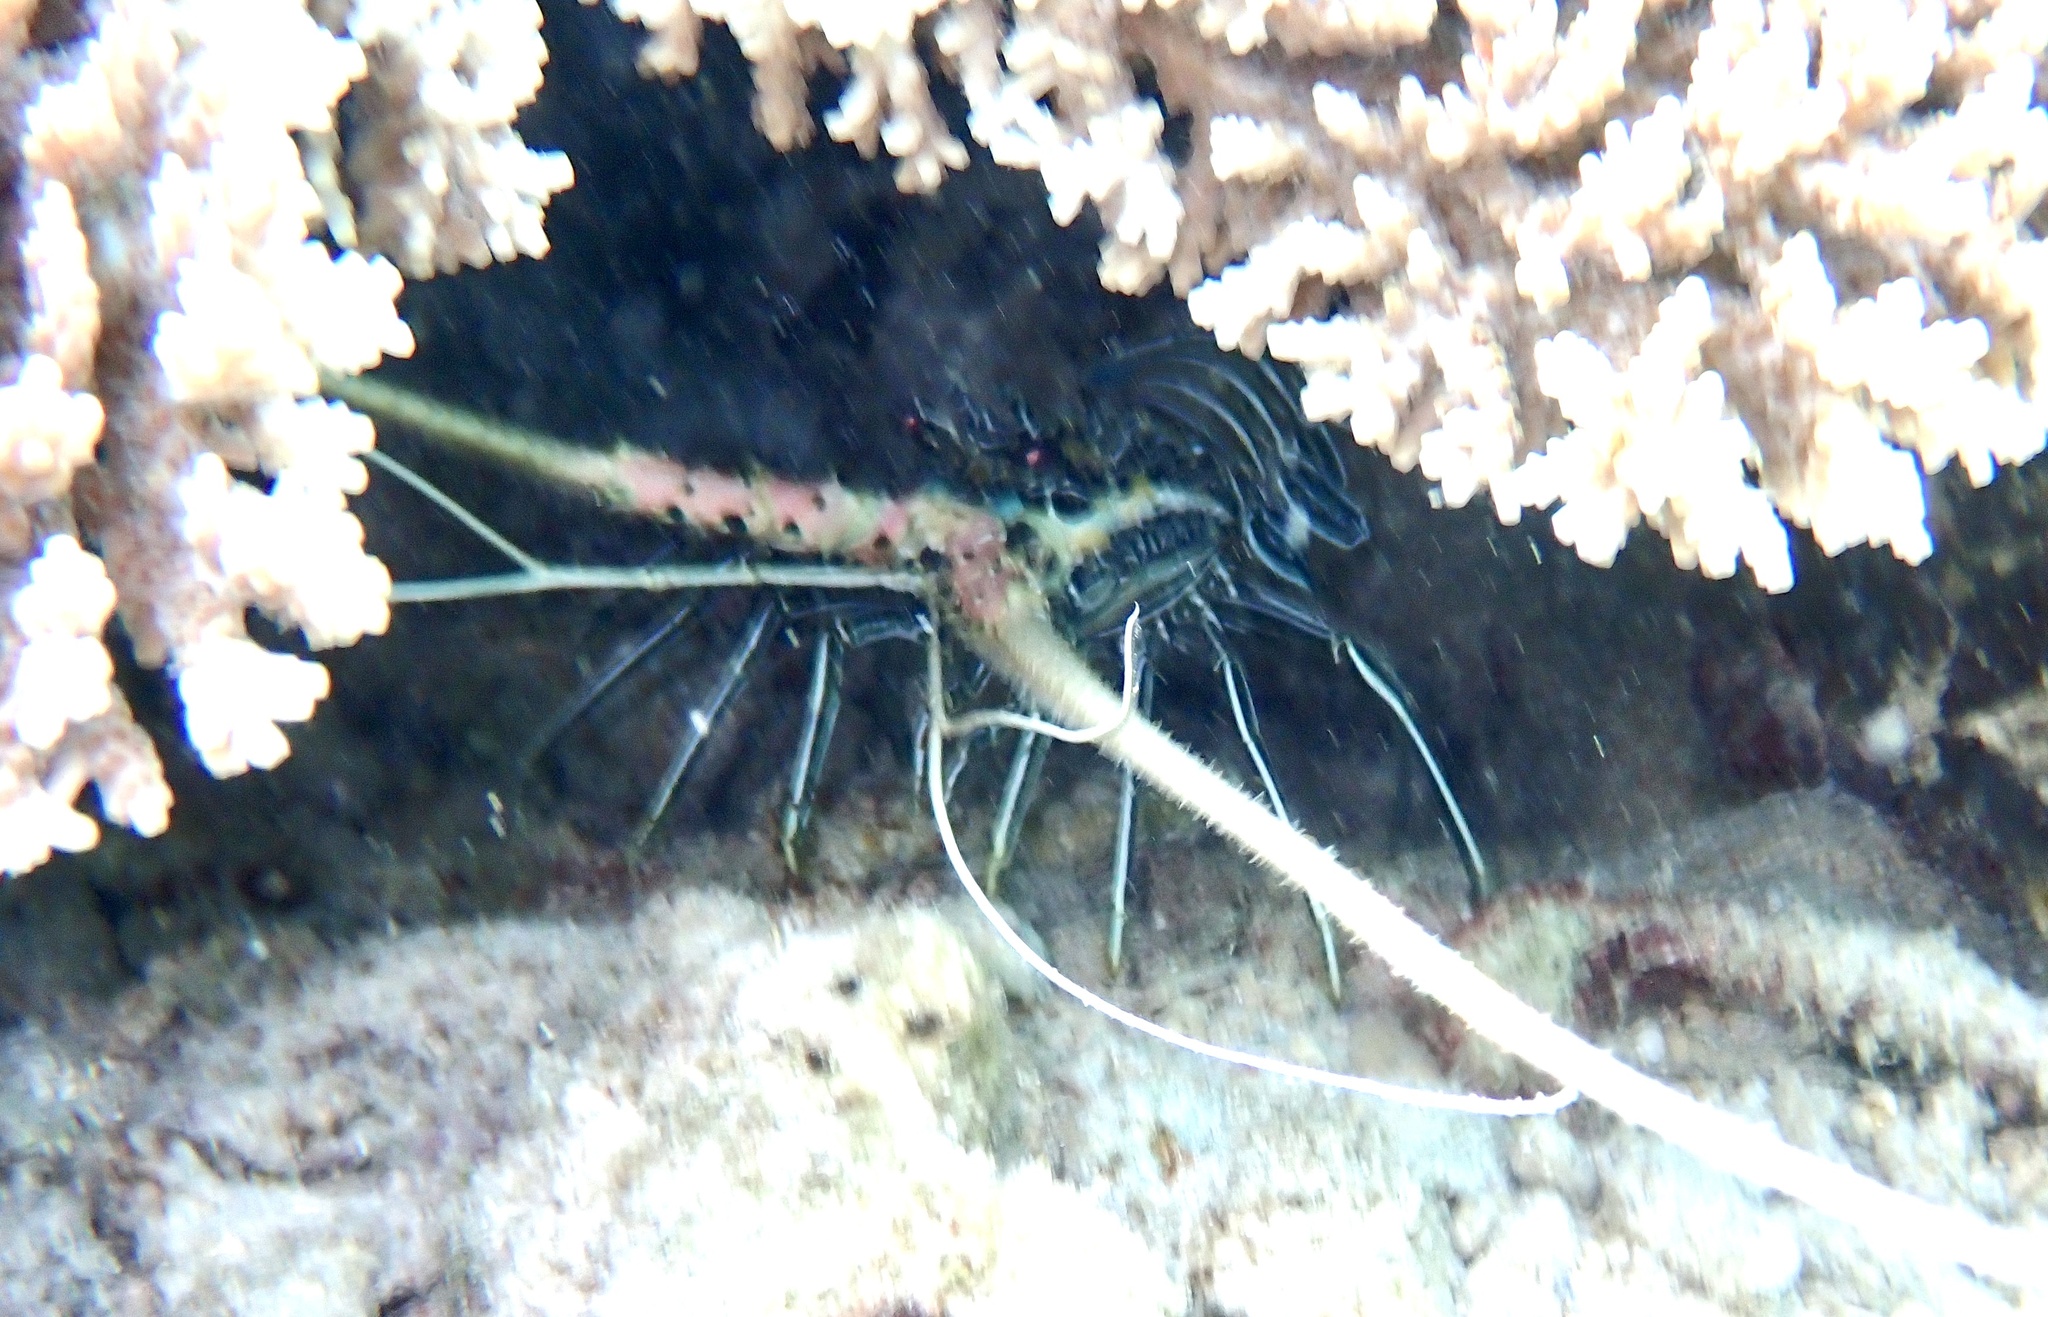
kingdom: Animalia
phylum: Arthropoda
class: Malacostraca
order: Decapoda
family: Palinuridae
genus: Panulirus
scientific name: Panulirus versicolor
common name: Painted spiny lobster
